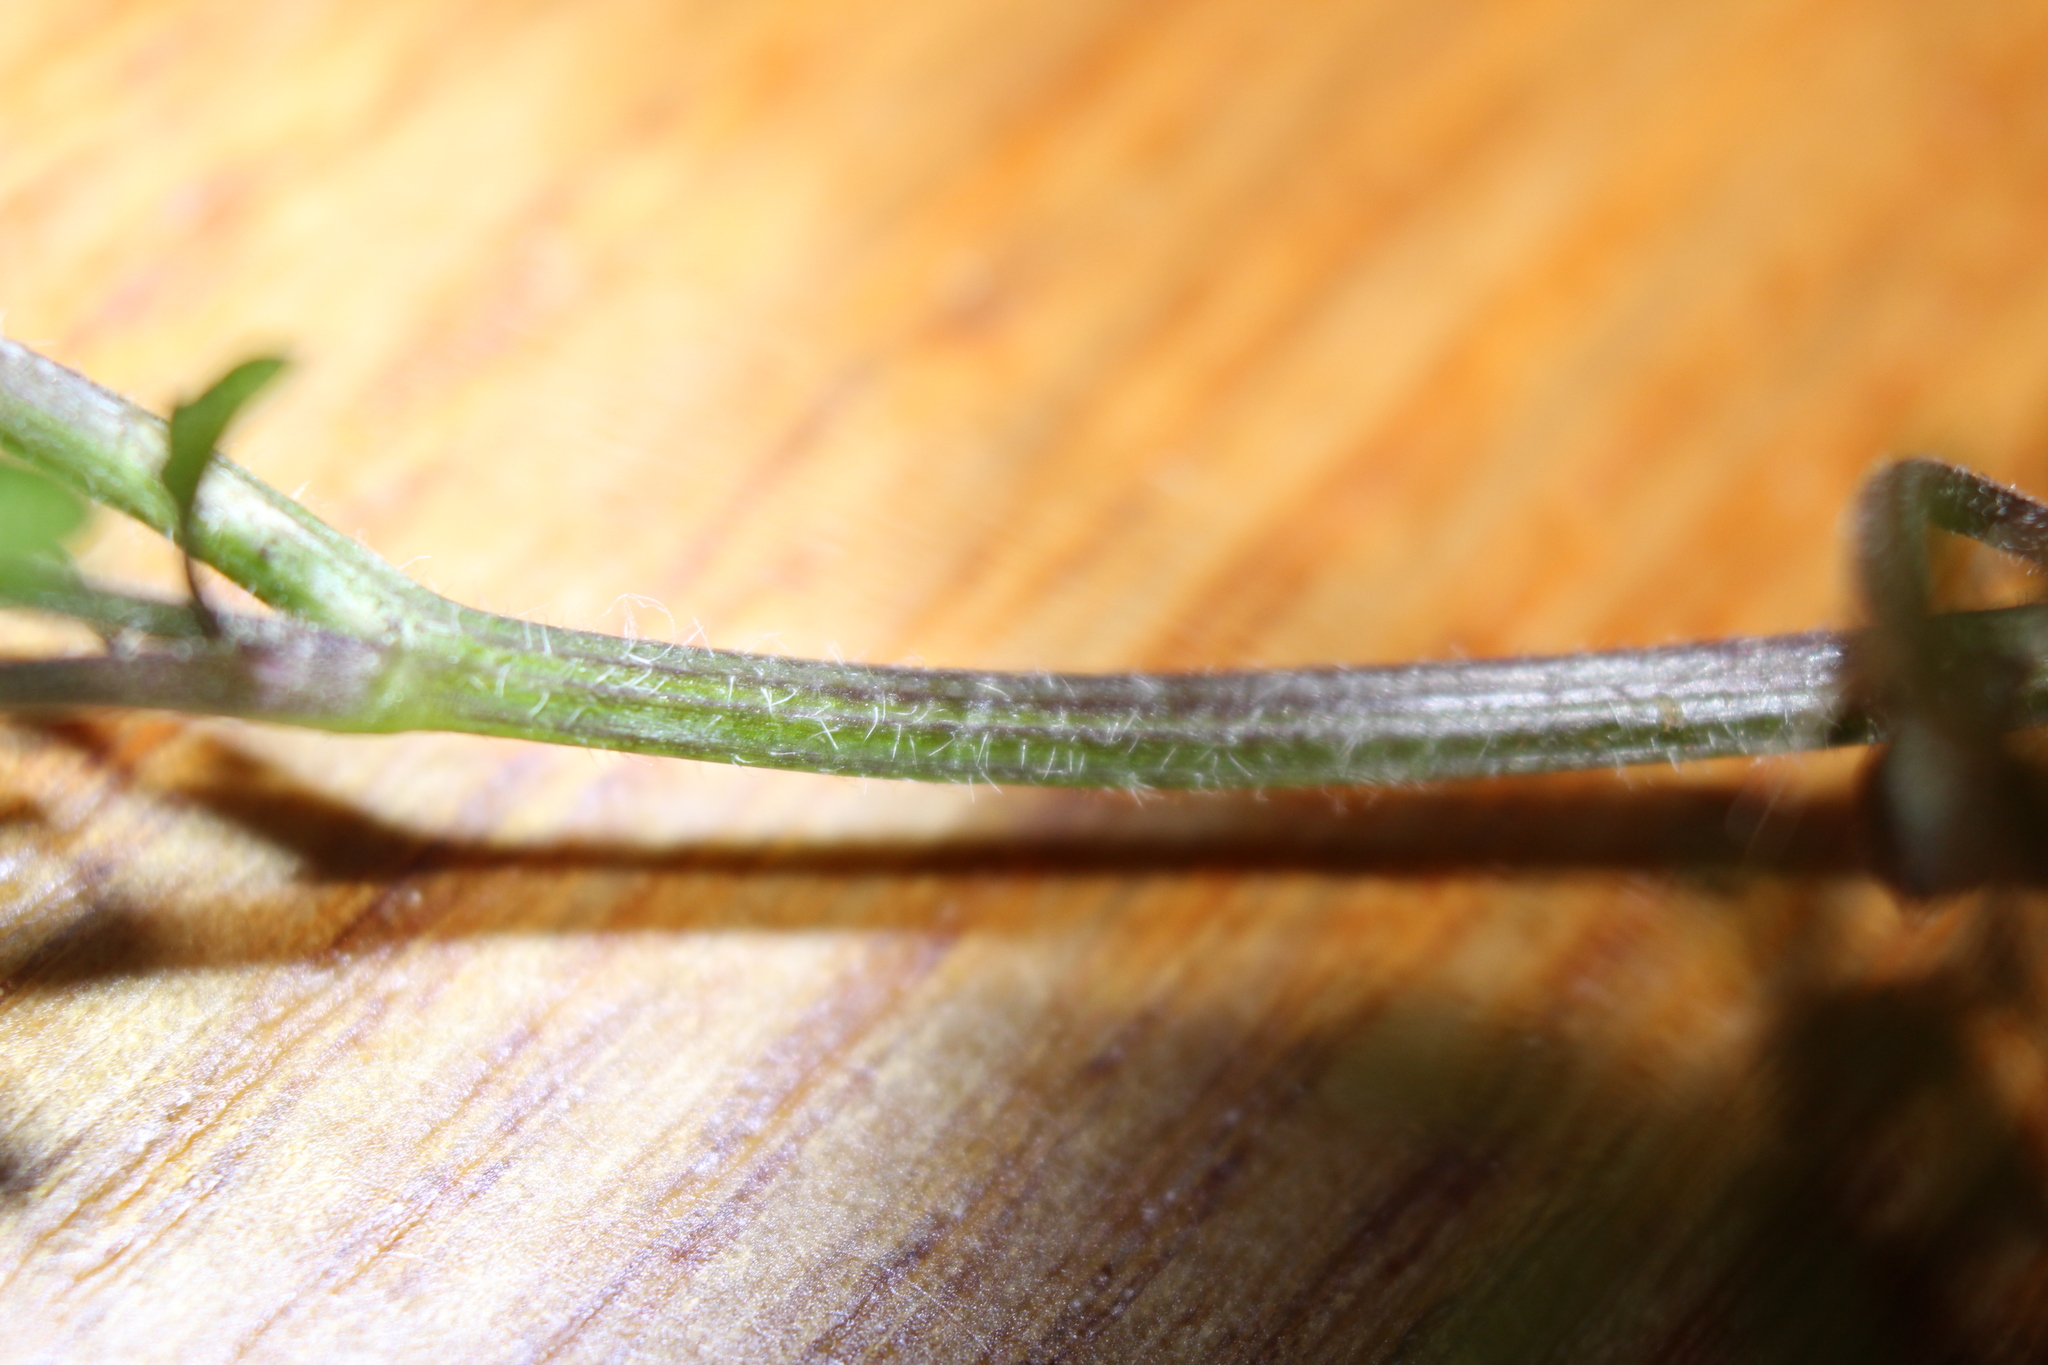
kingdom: Plantae
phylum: Tracheophyta
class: Magnoliopsida
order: Brassicales
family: Brassicaceae
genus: Cardamine
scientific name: Cardamine flexuosa
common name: Woodland bittercress
